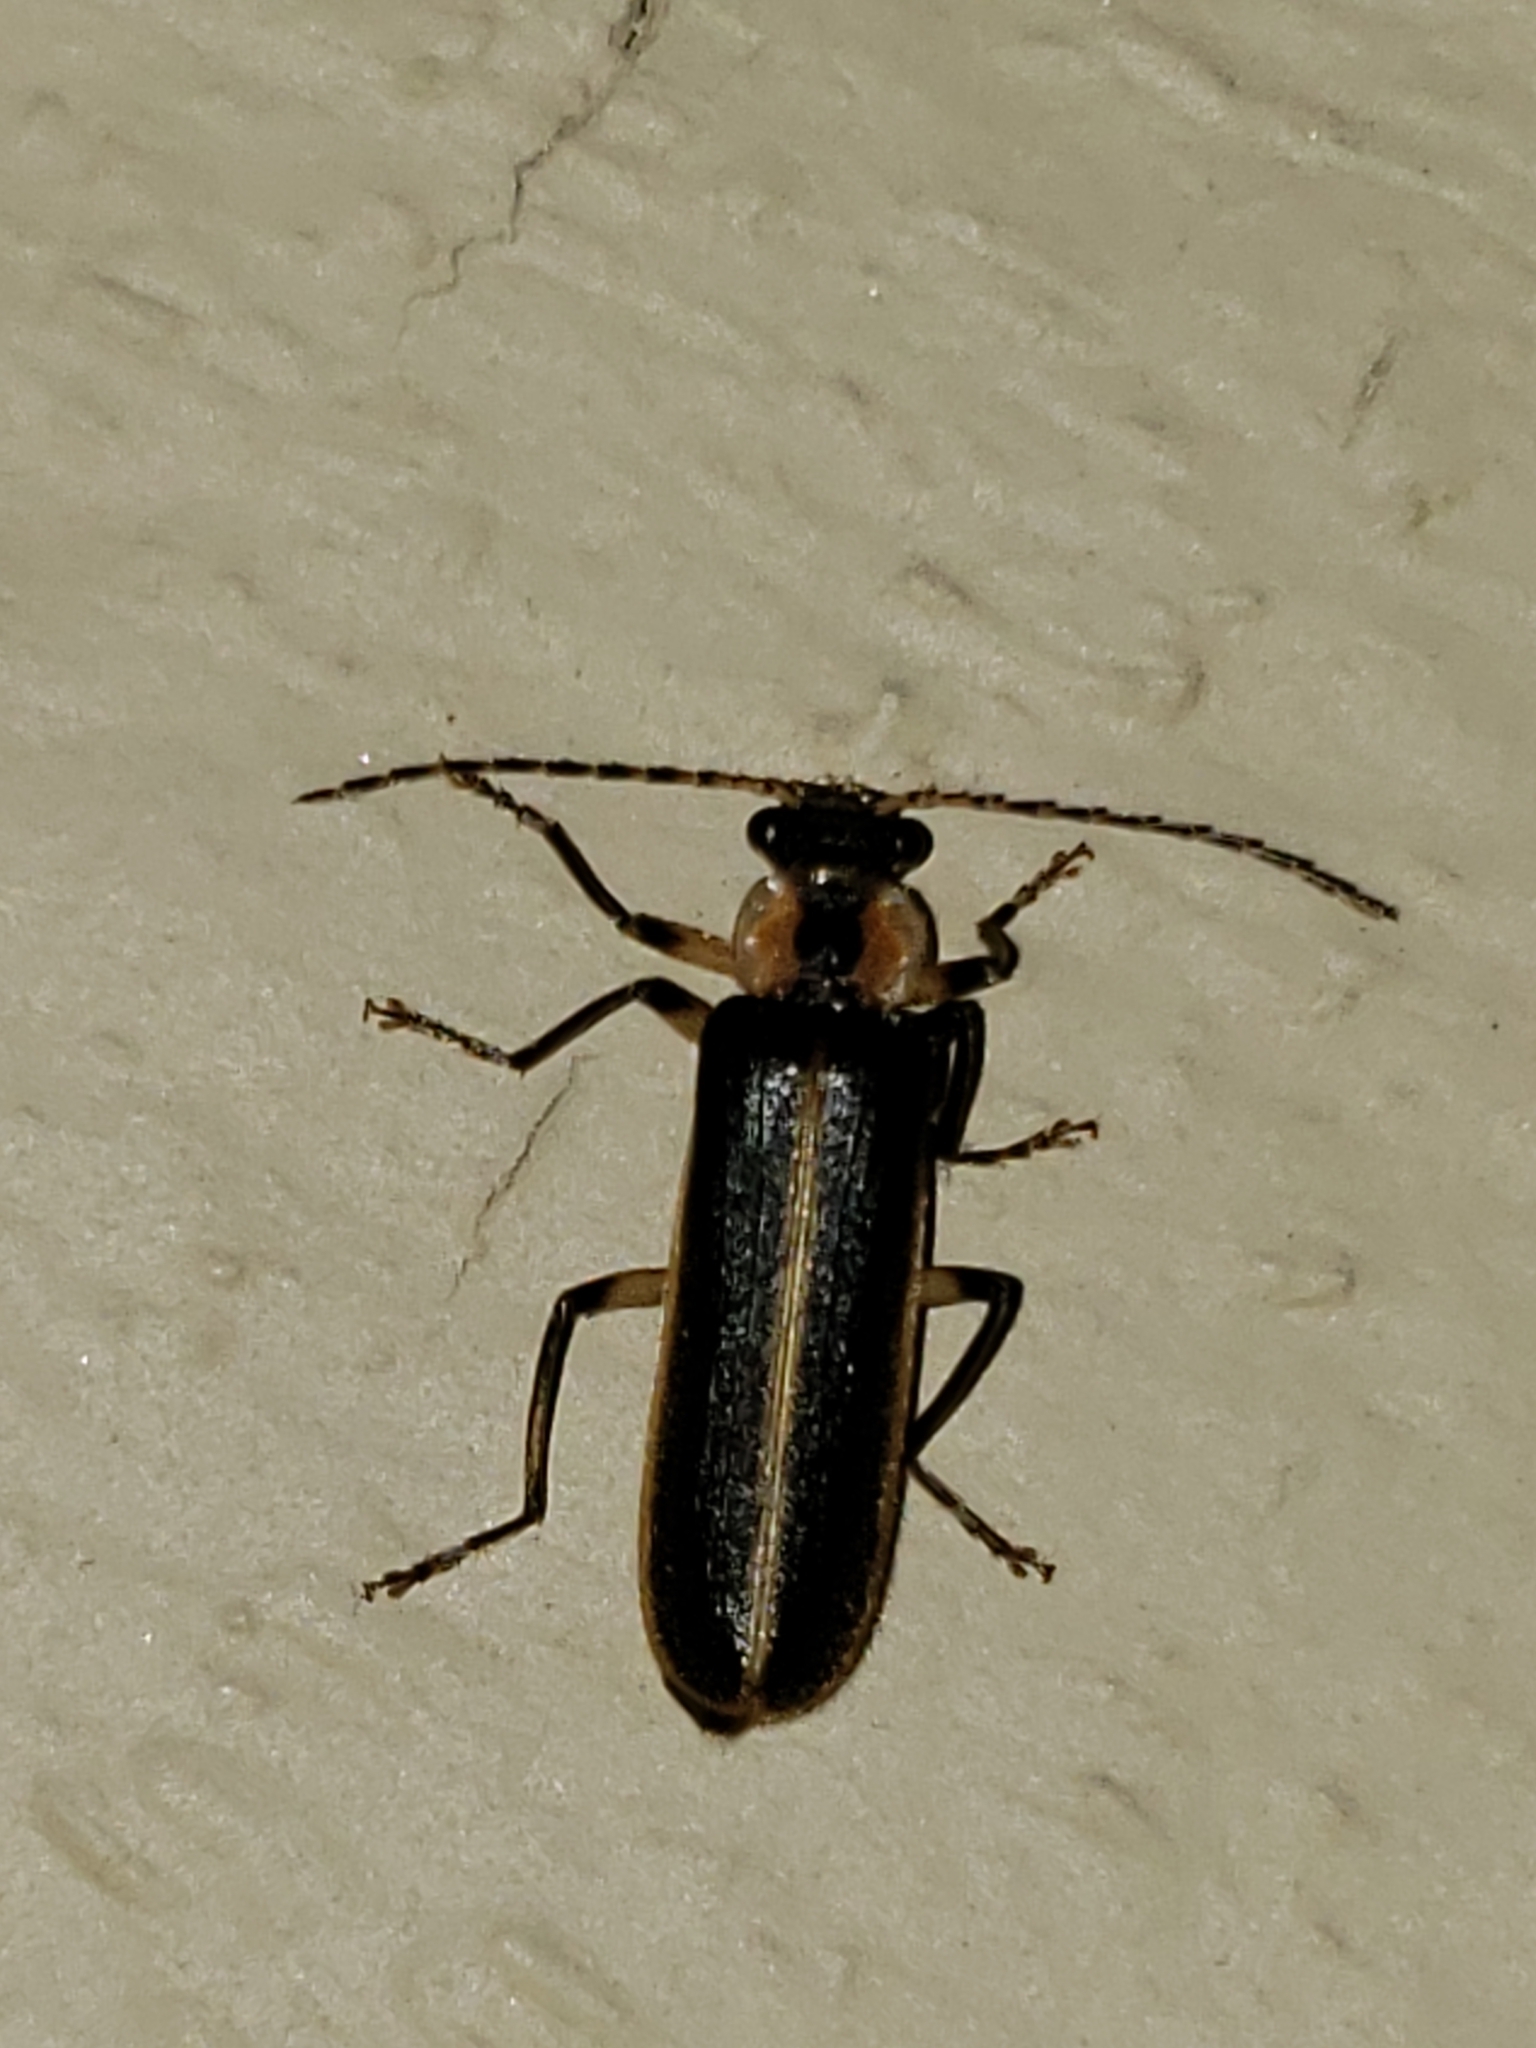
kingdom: Animalia
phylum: Arthropoda
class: Insecta
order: Coleoptera
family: Cantharidae
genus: Podabrus
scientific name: Podabrus basilaris
